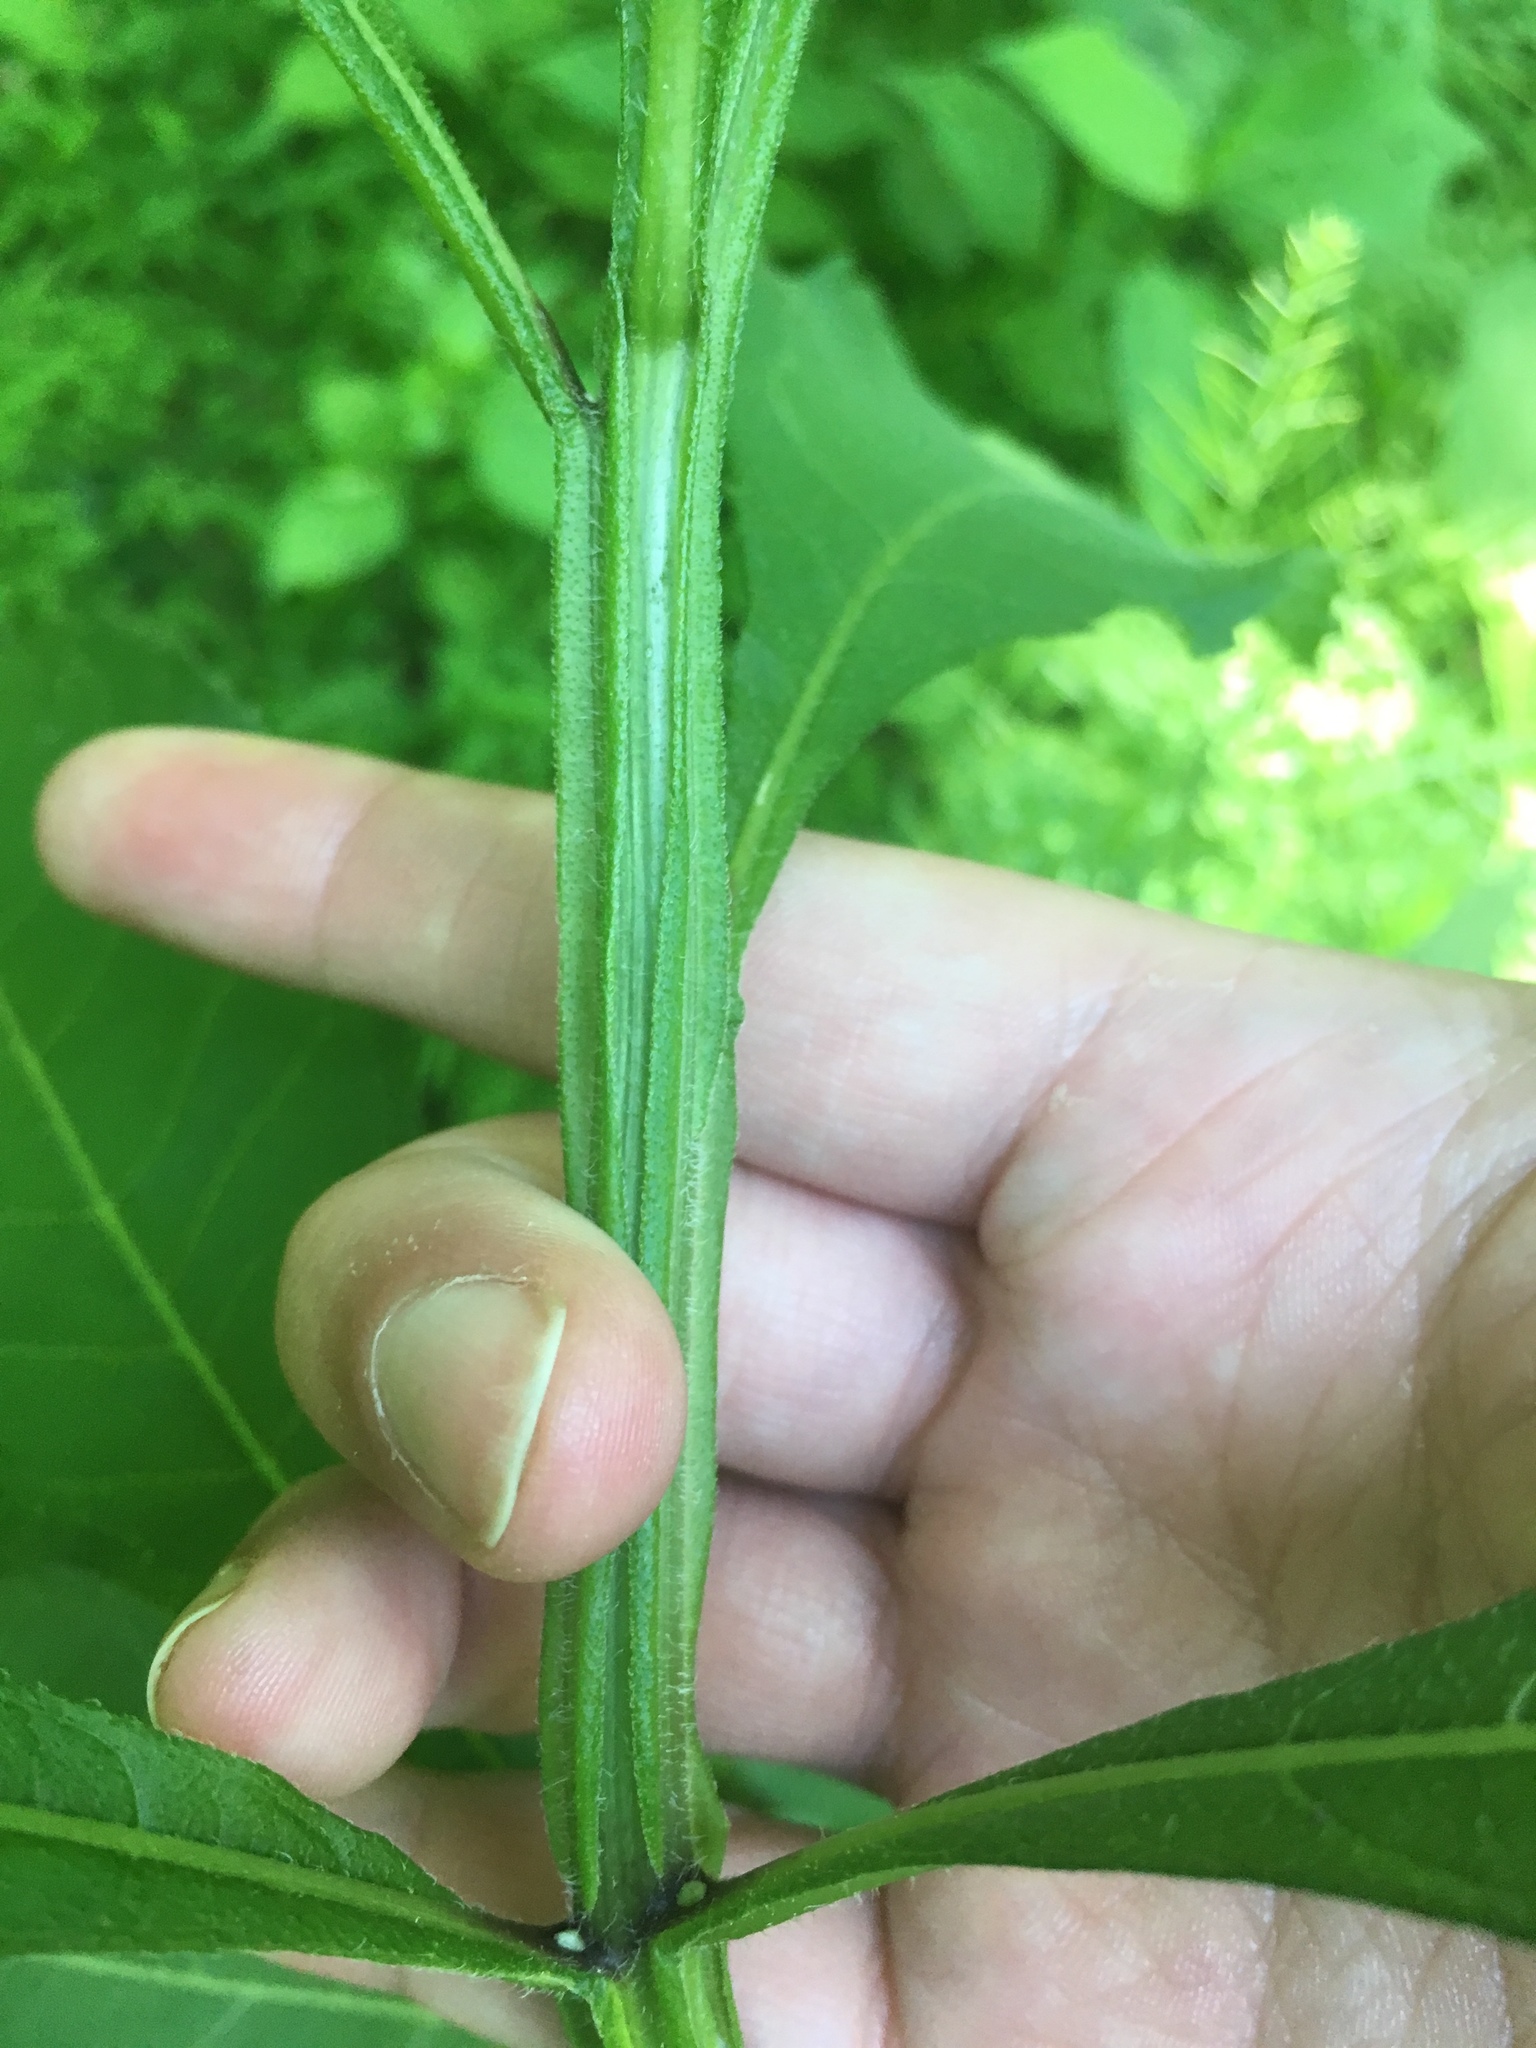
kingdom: Plantae
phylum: Tracheophyta
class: Magnoliopsida
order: Asterales
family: Asteraceae
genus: Verbesina
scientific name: Verbesina alternifolia
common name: Wingstem
